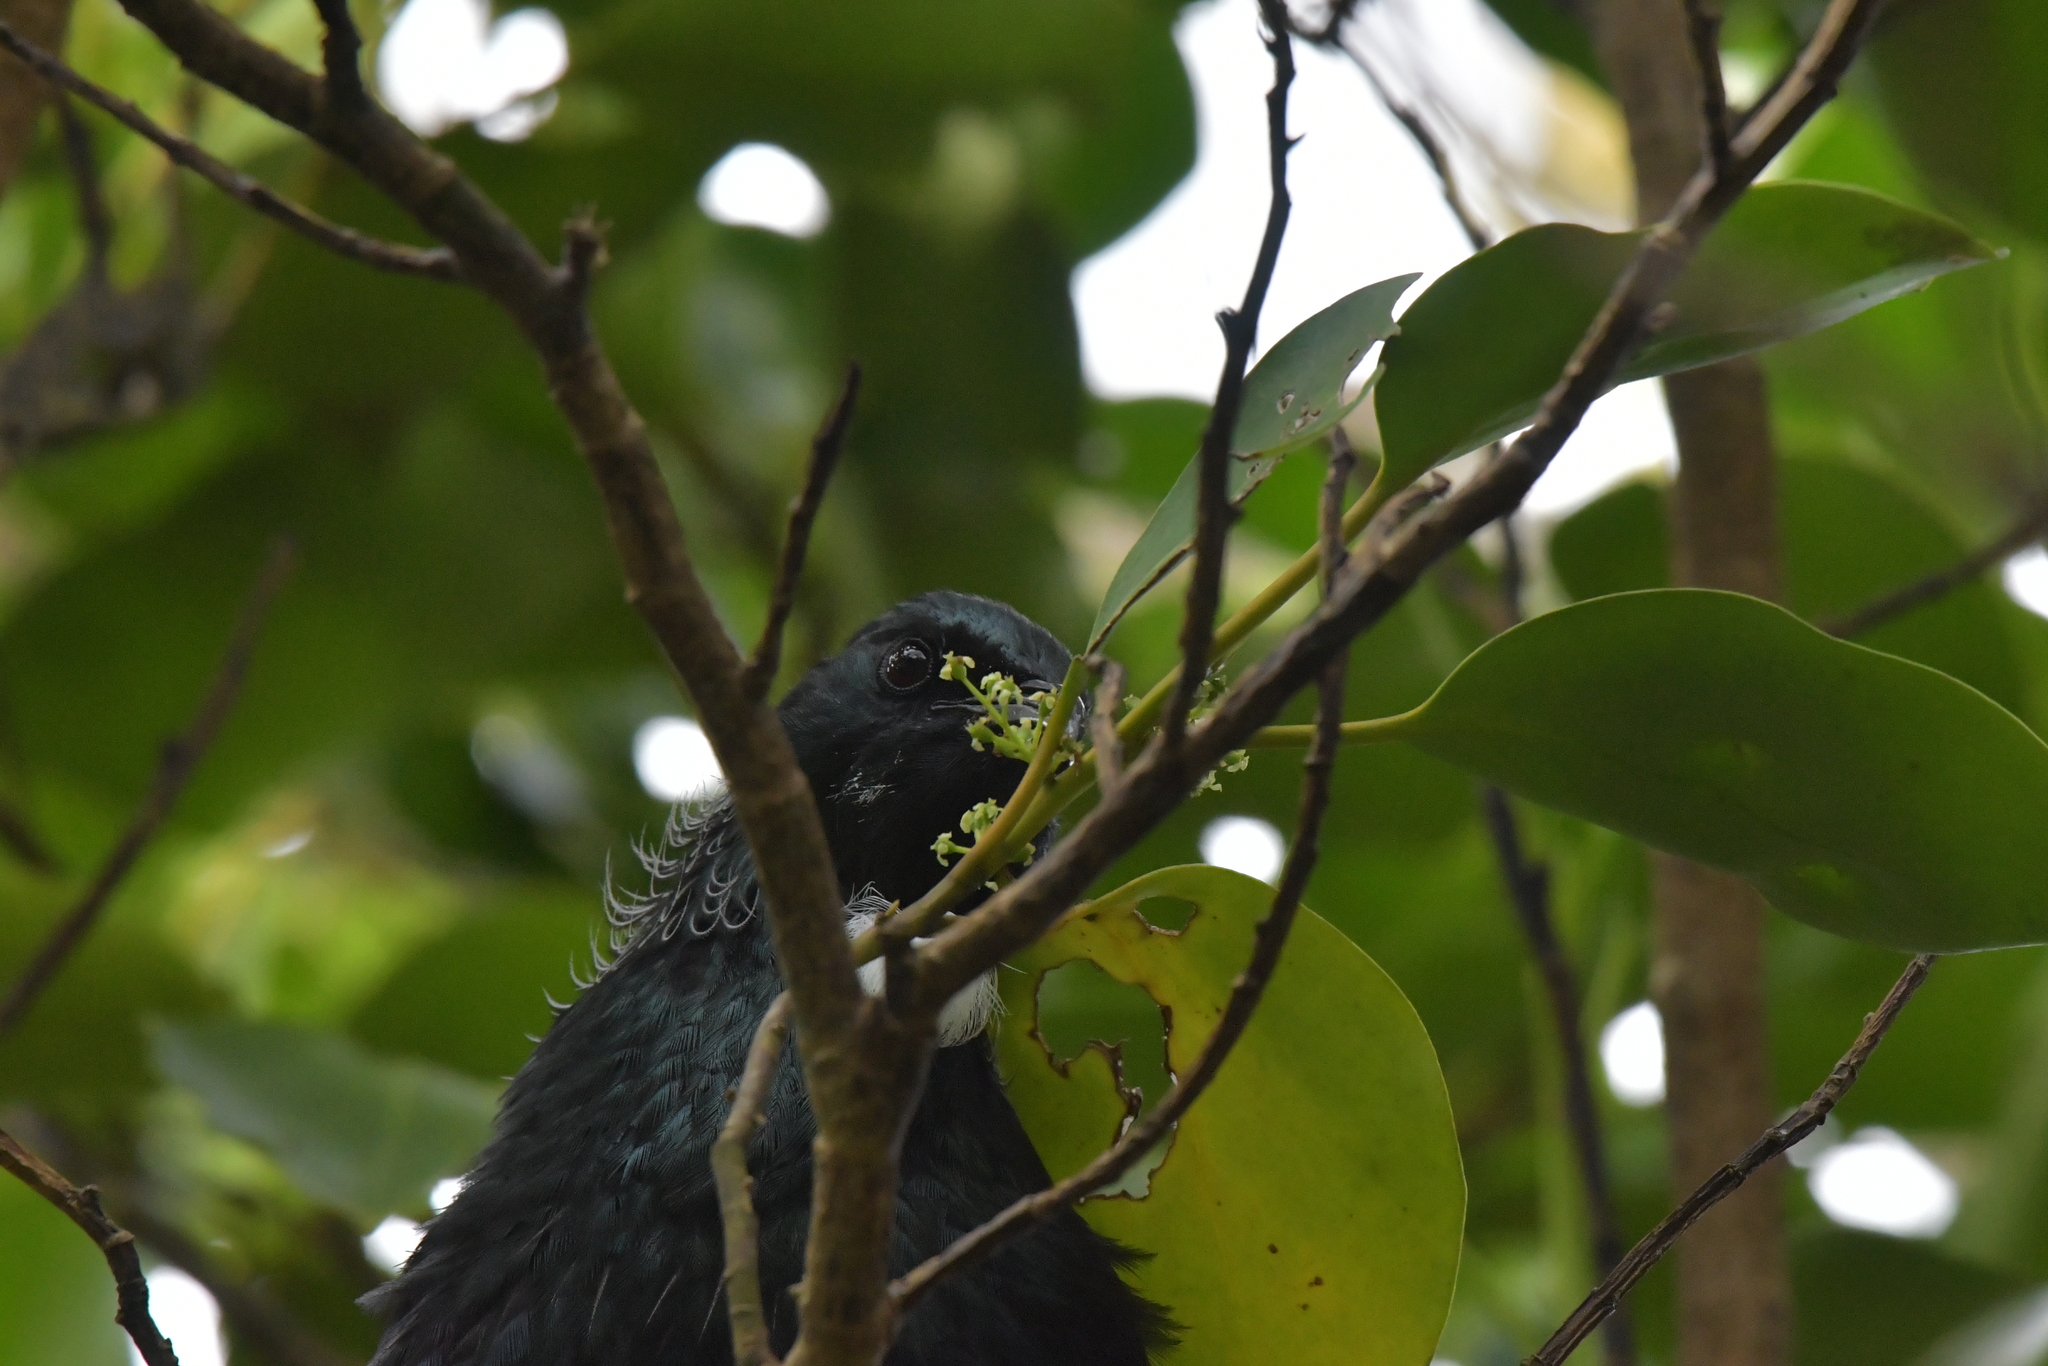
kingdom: Animalia
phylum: Chordata
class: Aves
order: Passeriformes
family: Meliphagidae
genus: Prosthemadera
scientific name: Prosthemadera novaeseelandiae
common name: Tui
